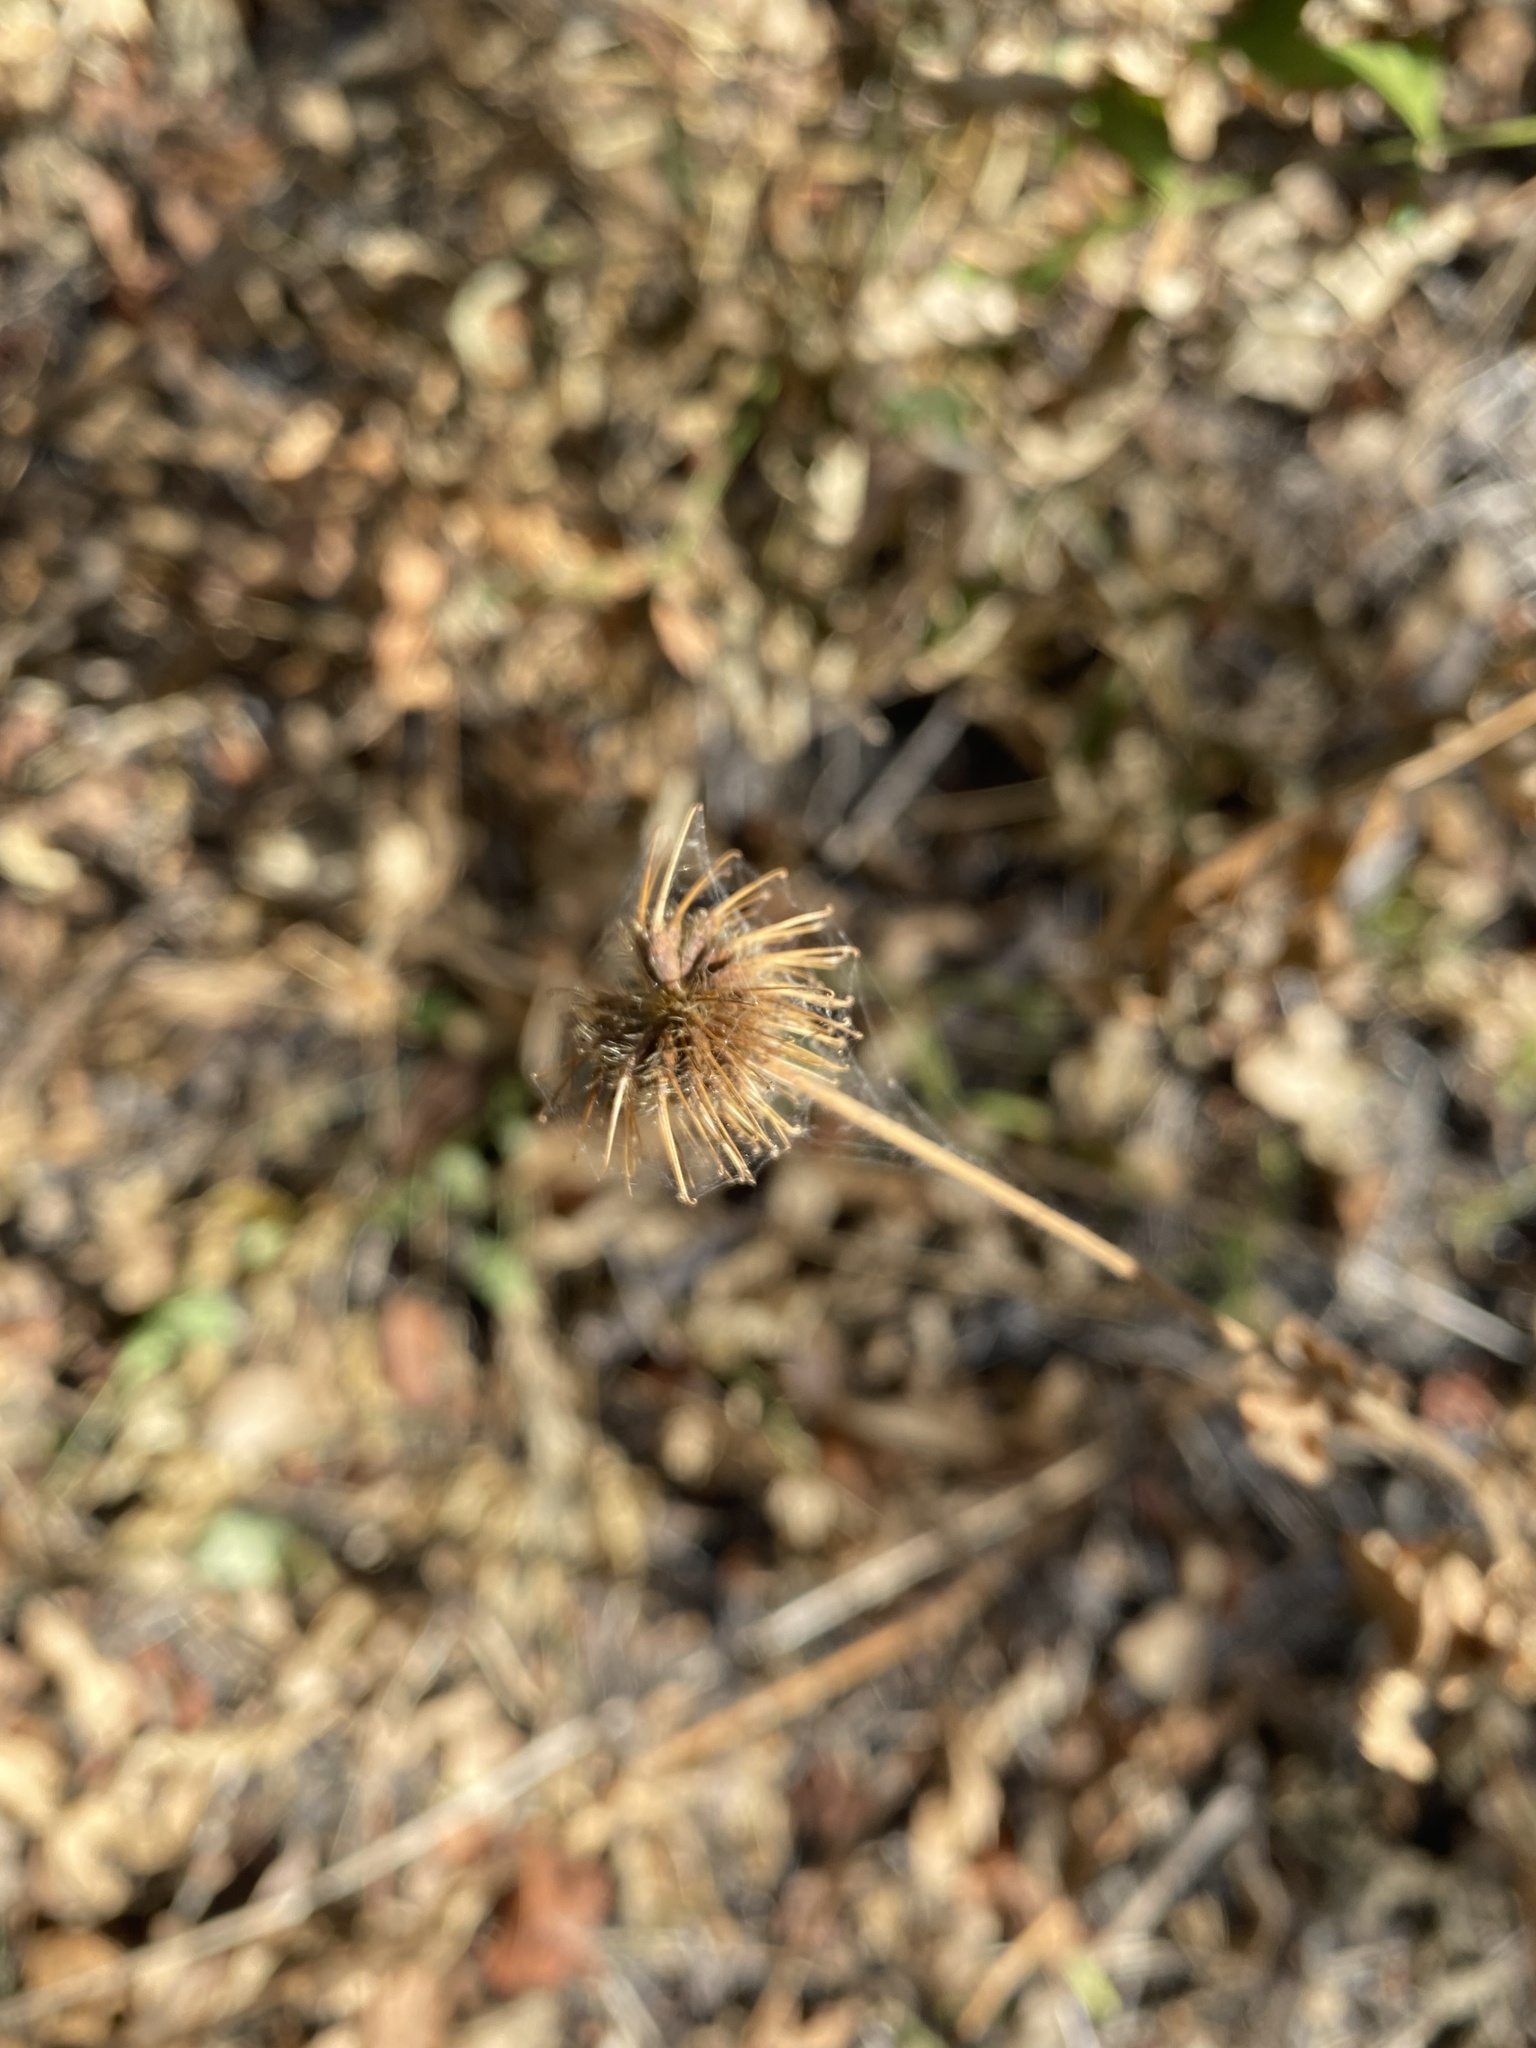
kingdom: Plantae
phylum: Tracheophyta
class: Magnoliopsida
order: Rosales
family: Rosaceae
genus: Geum
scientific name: Geum urbanum
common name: Wood avens
